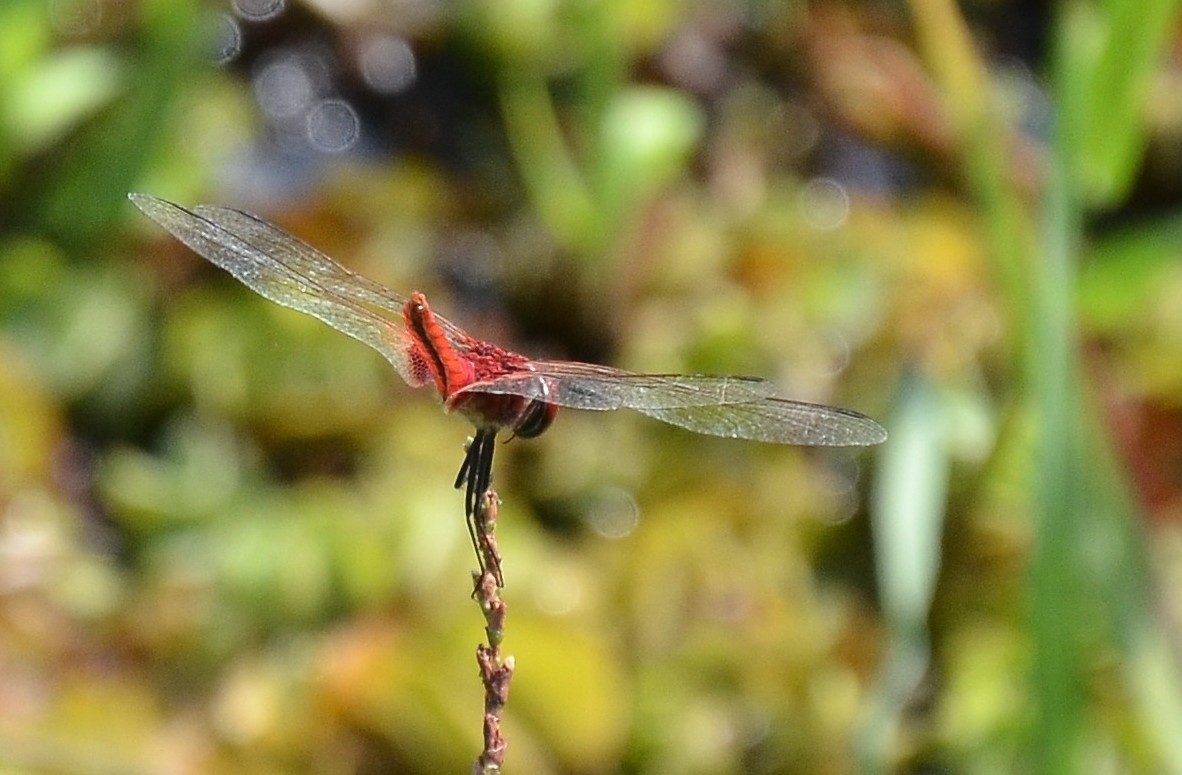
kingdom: Animalia
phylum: Arthropoda
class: Insecta
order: Odonata
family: Libellulidae
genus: Macrodiplax
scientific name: Macrodiplax cora
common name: Coastal glider
